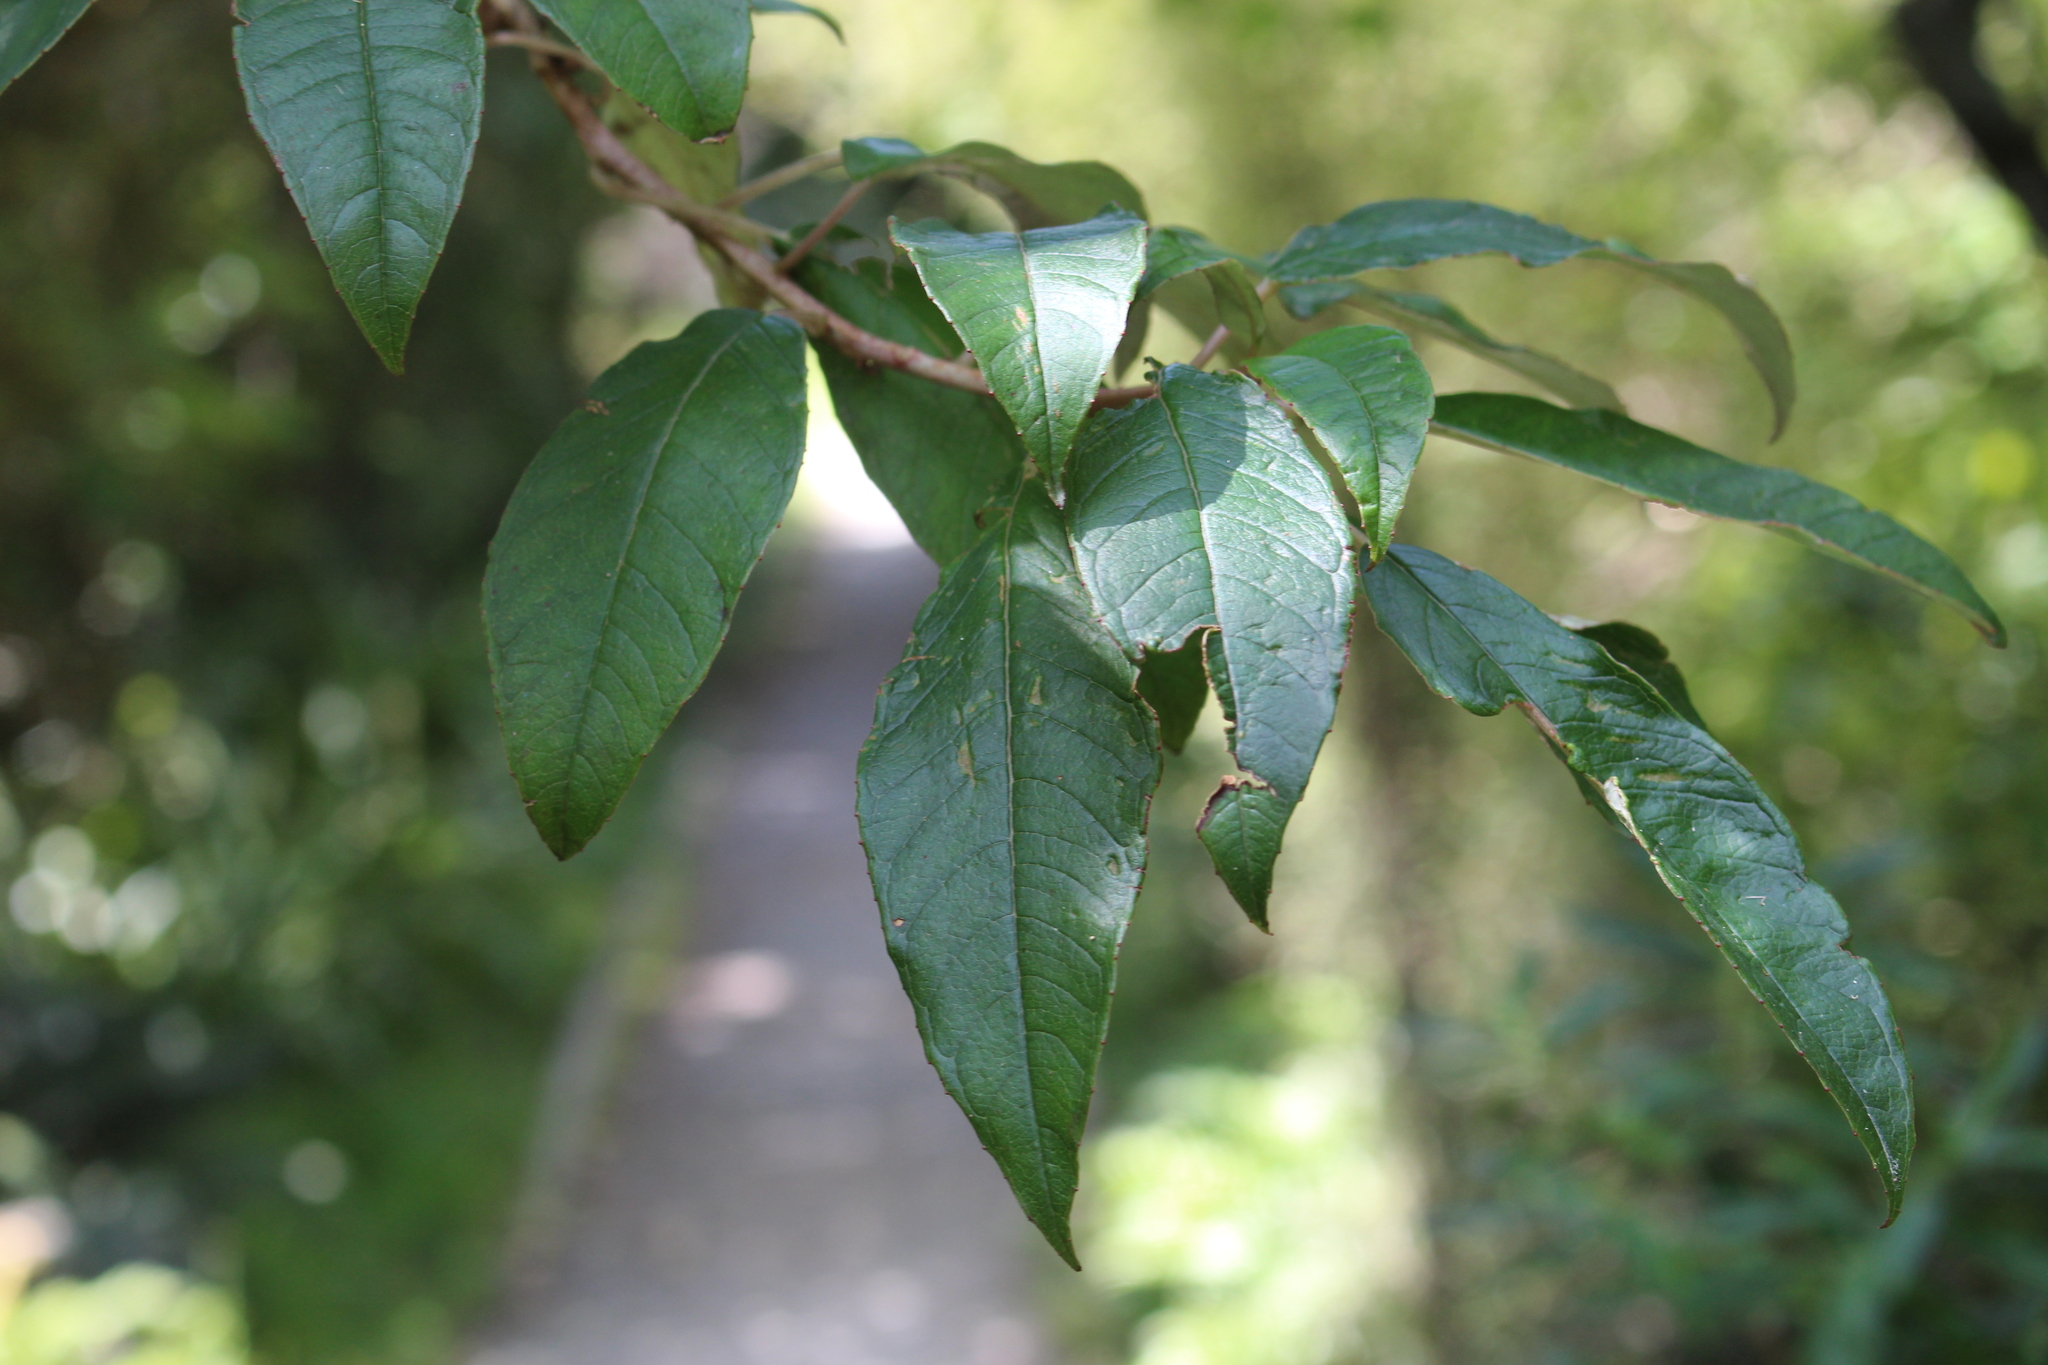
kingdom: Plantae
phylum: Tracheophyta
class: Magnoliopsida
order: Myrtales
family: Onagraceae
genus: Fuchsia
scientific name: Fuchsia excorticata
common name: Tree fuchsia
